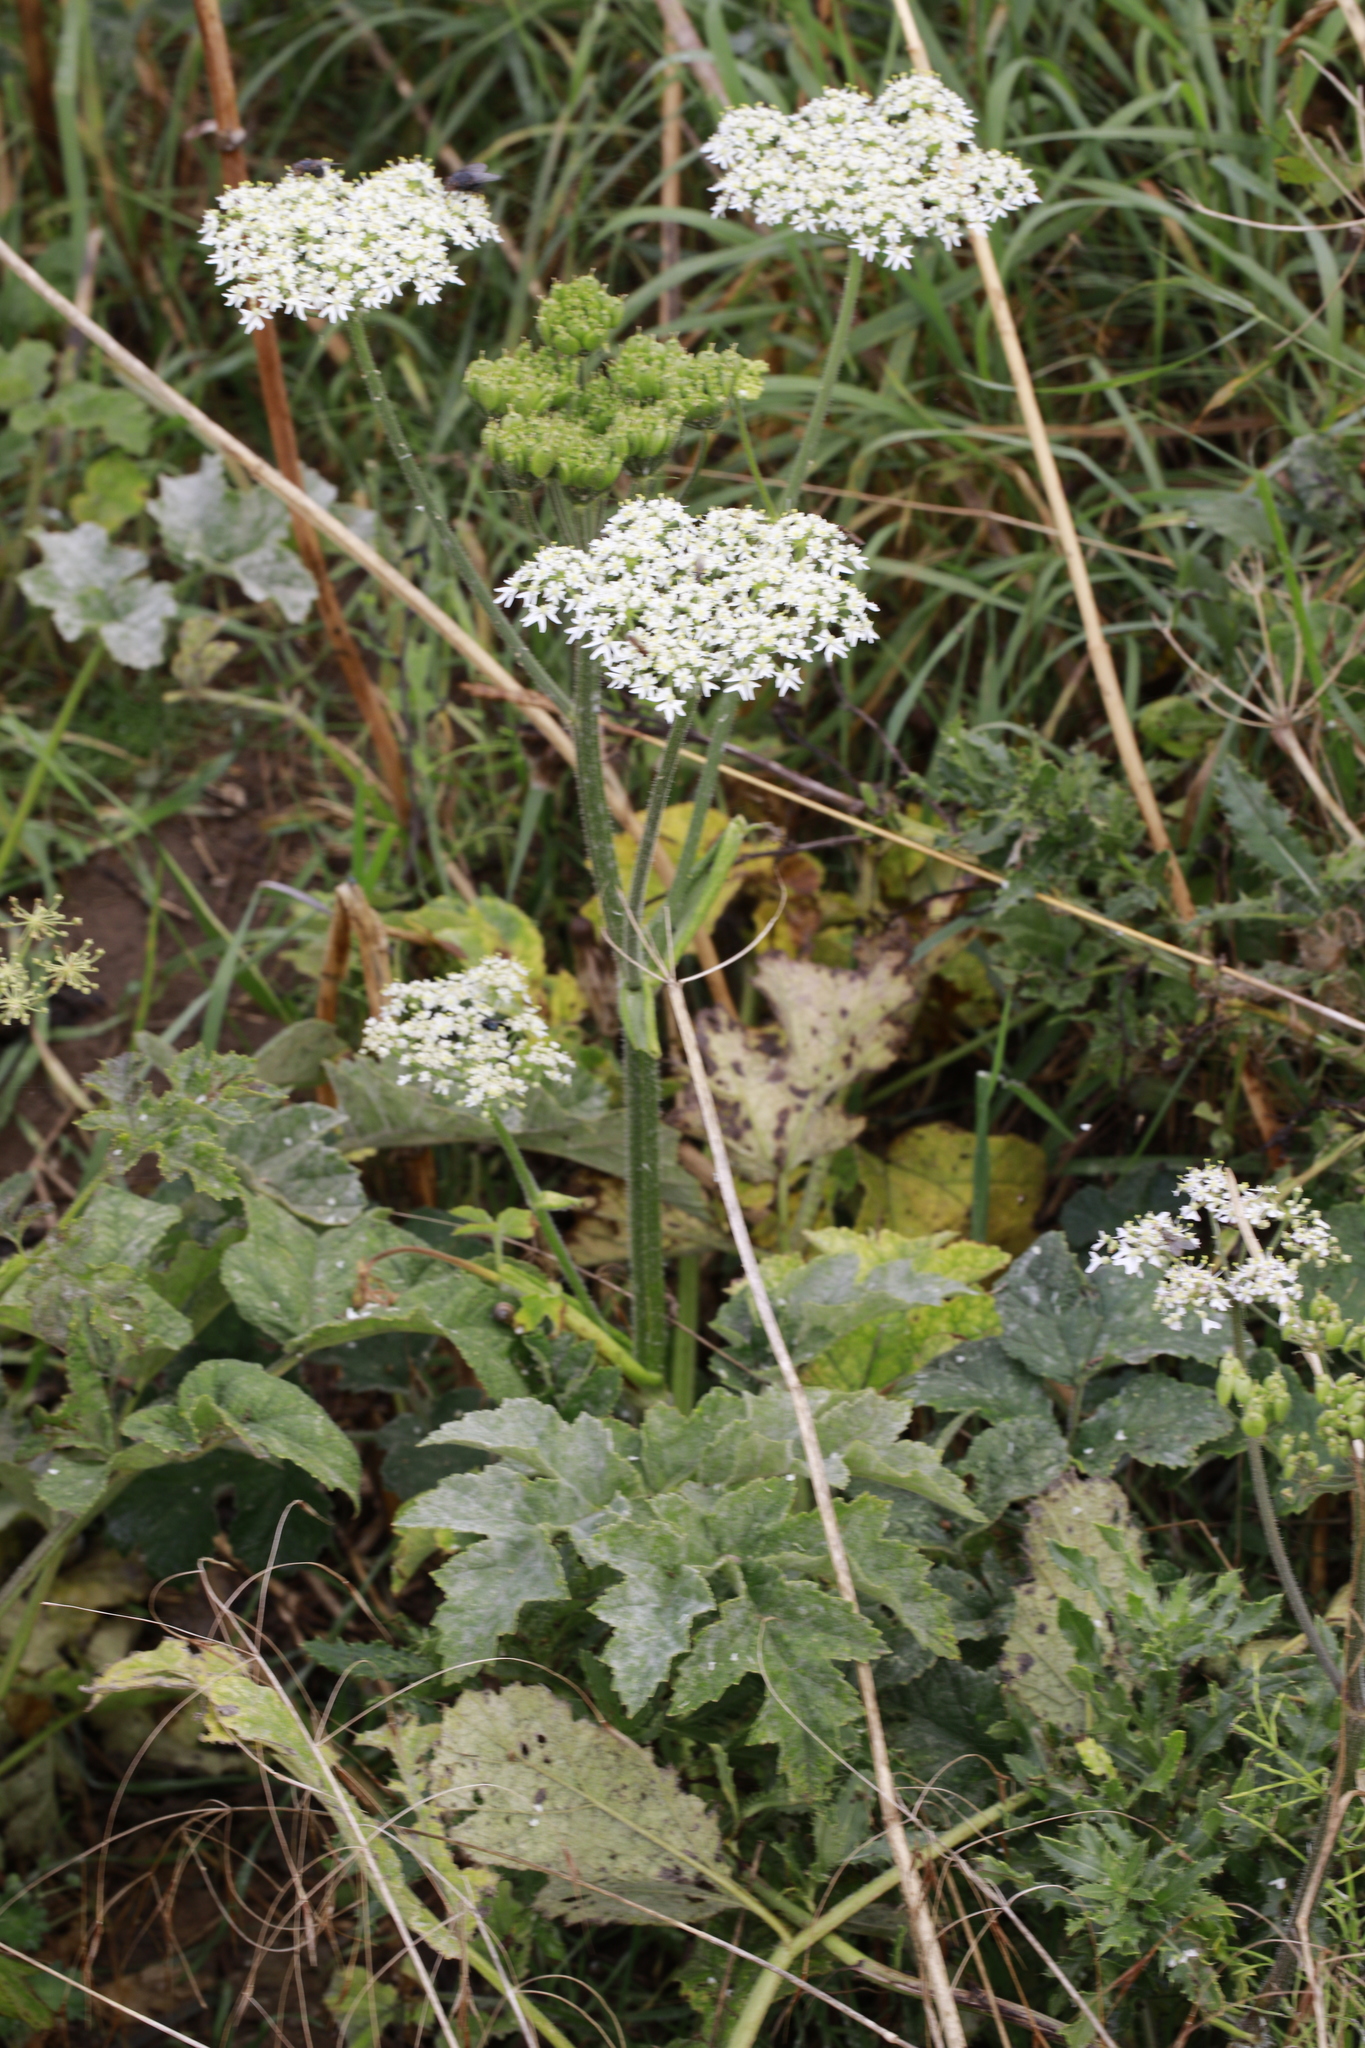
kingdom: Plantae
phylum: Tracheophyta
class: Magnoliopsida
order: Apiales
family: Apiaceae
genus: Heracleum
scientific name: Heracleum sphondylium
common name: Hogweed
